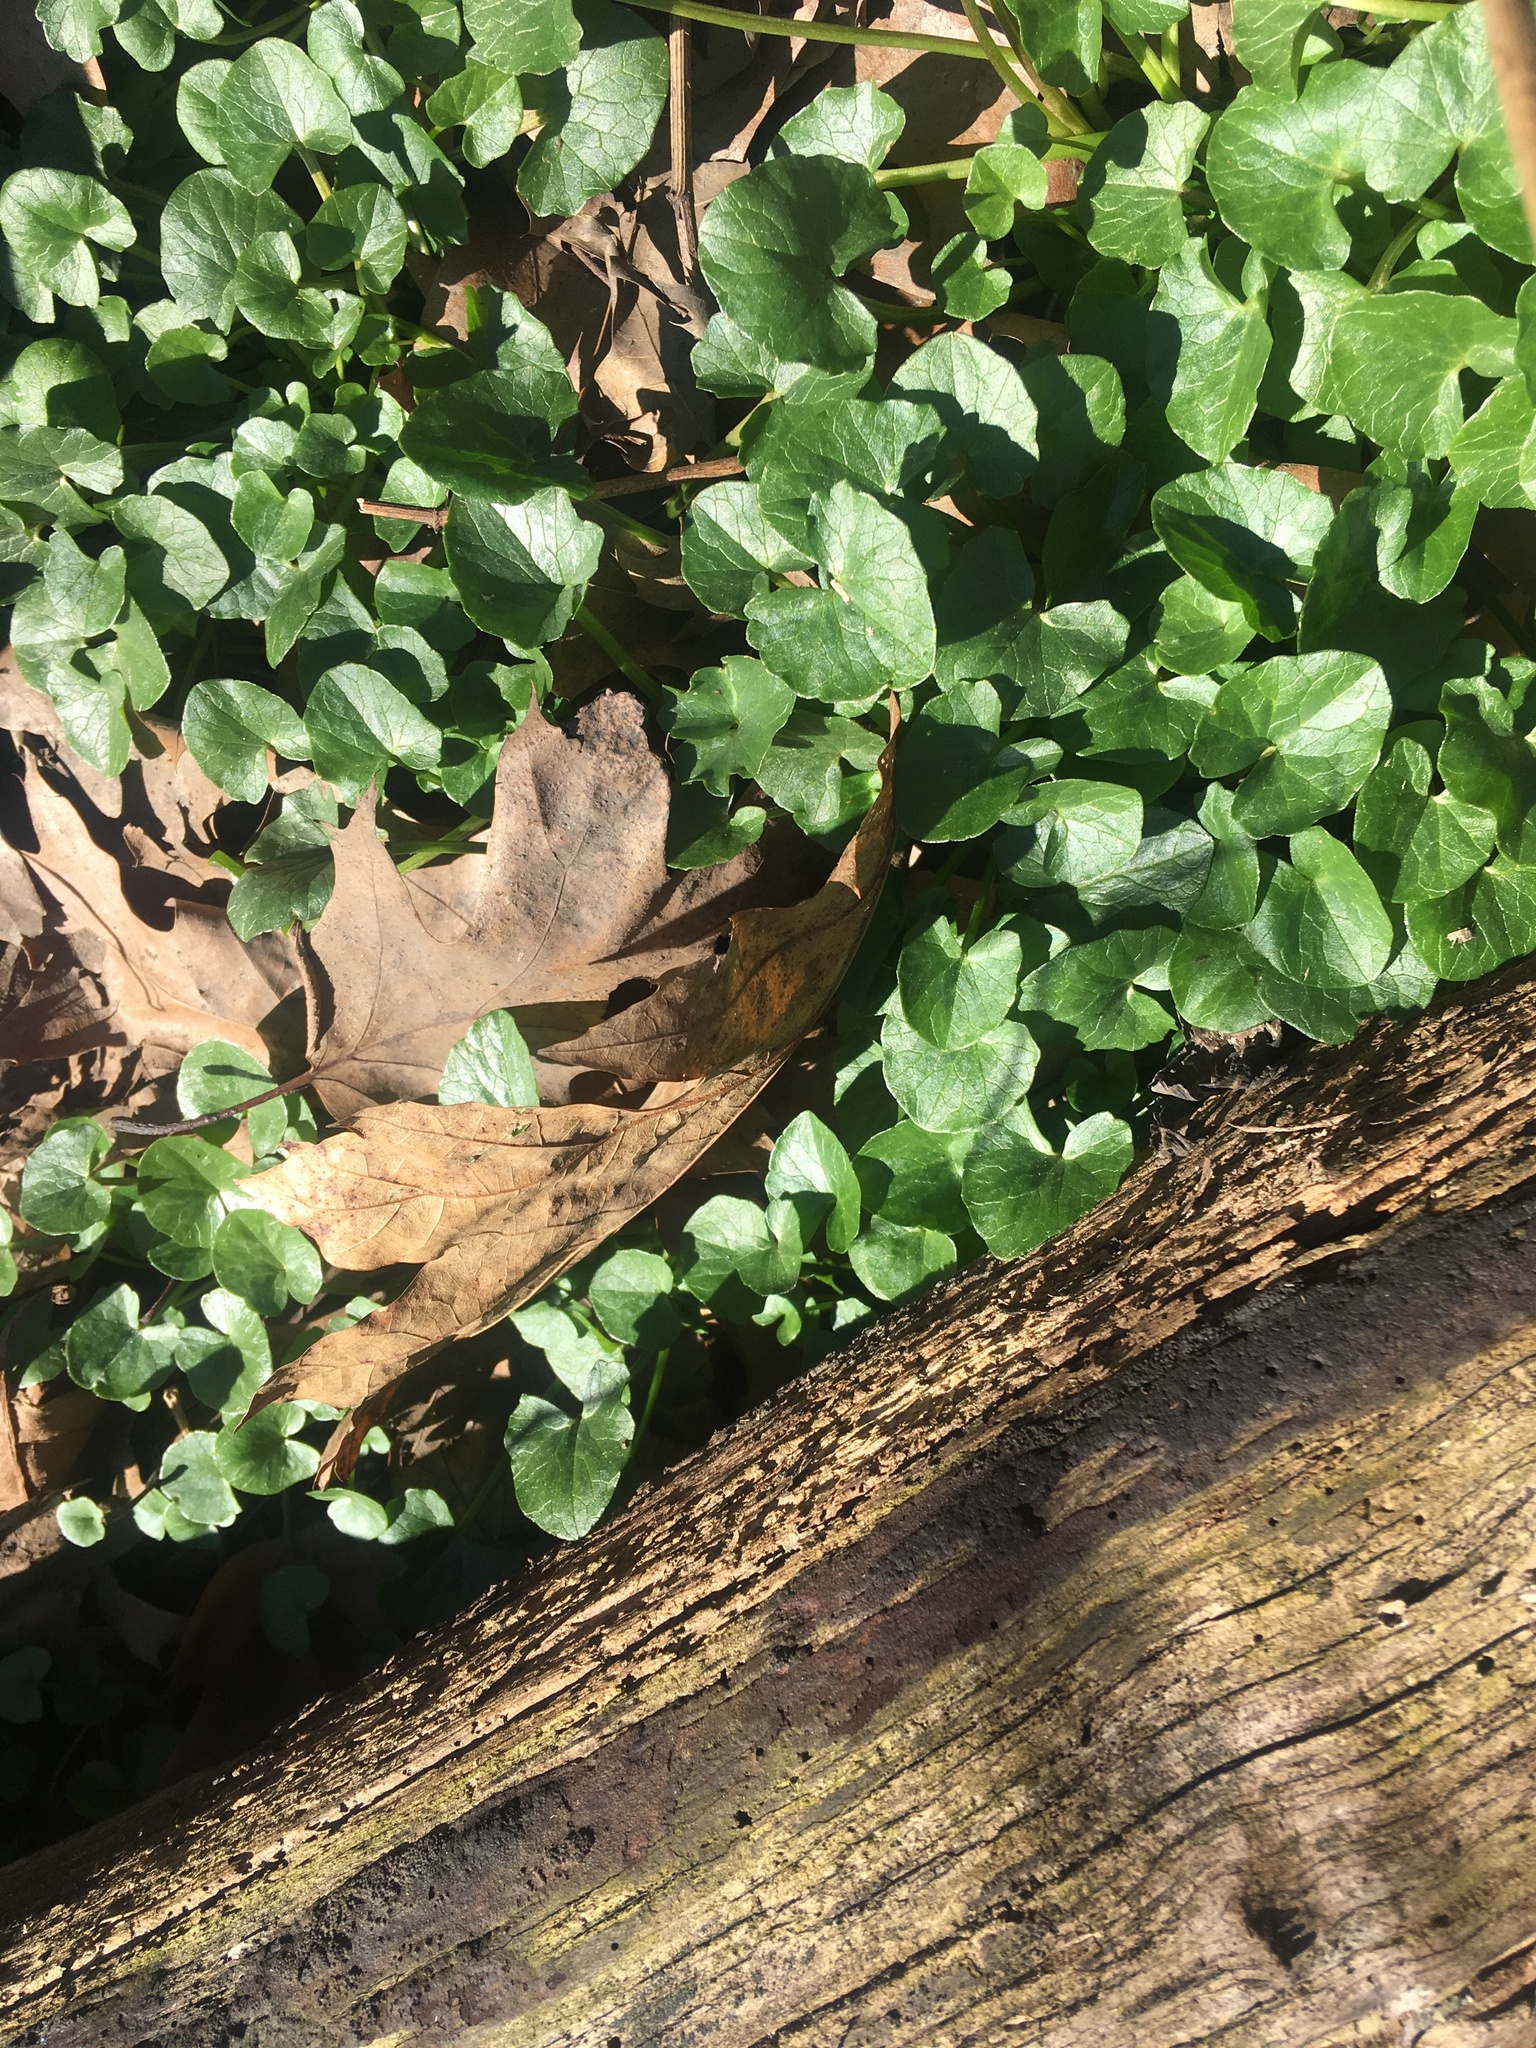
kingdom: Plantae
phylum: Tracheophyta
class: Magnoliopsida
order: Ranunculales
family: Ranunculaceae
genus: Ficaria
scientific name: Ficaria verna
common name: Lesser celandine
